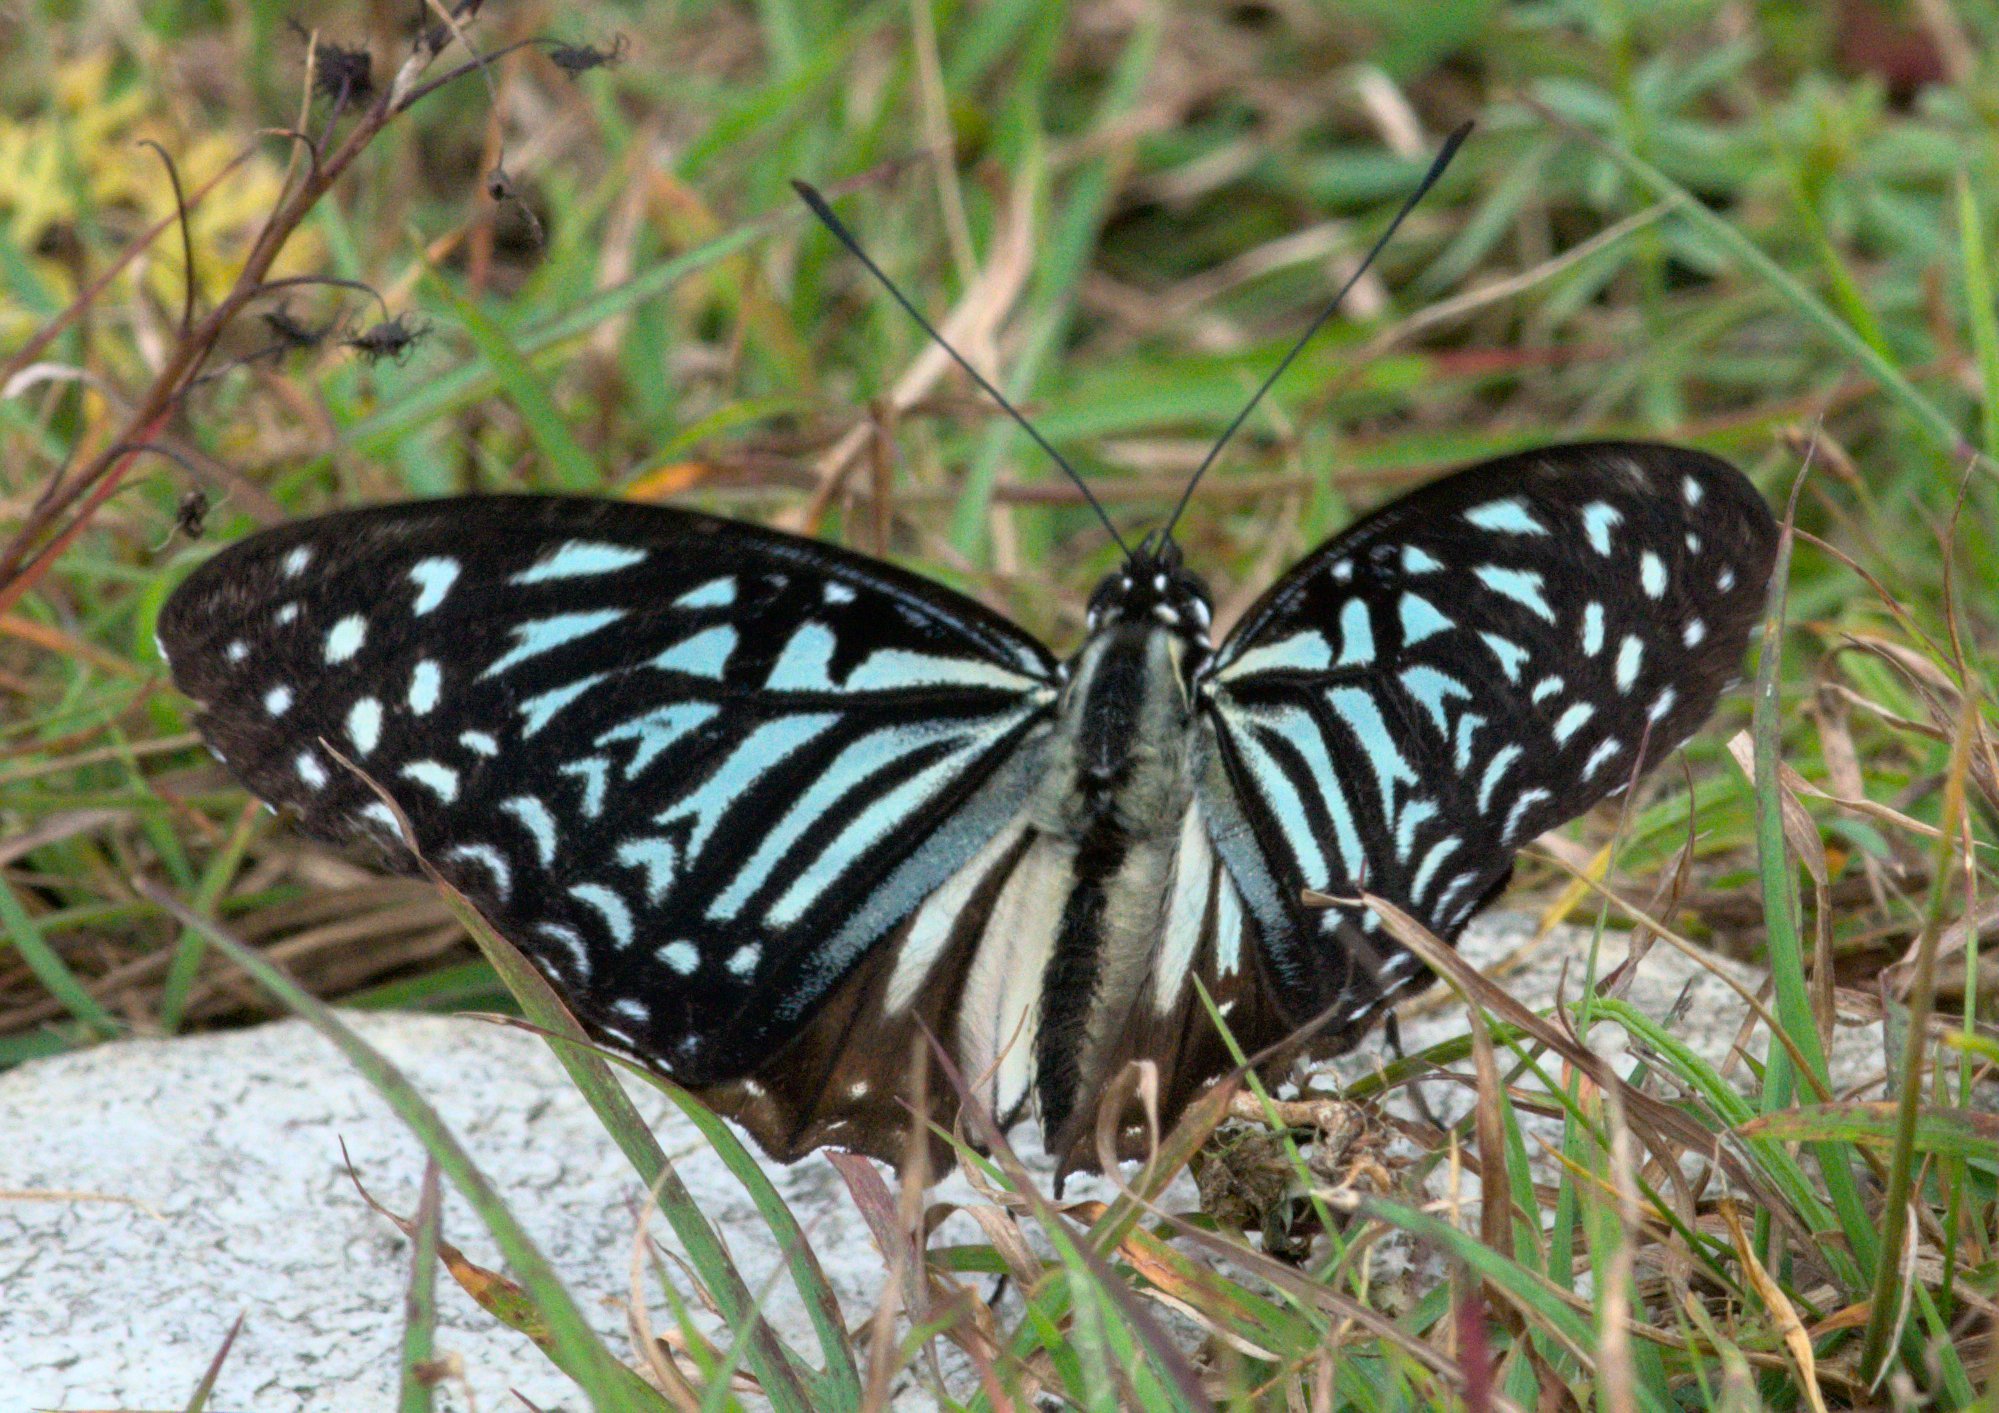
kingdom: Animalia
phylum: Arthropoda
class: Insecta
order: Lepidoptera
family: Nymphalidae
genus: Hestinalis
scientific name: Hestinalis nama
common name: Circe
